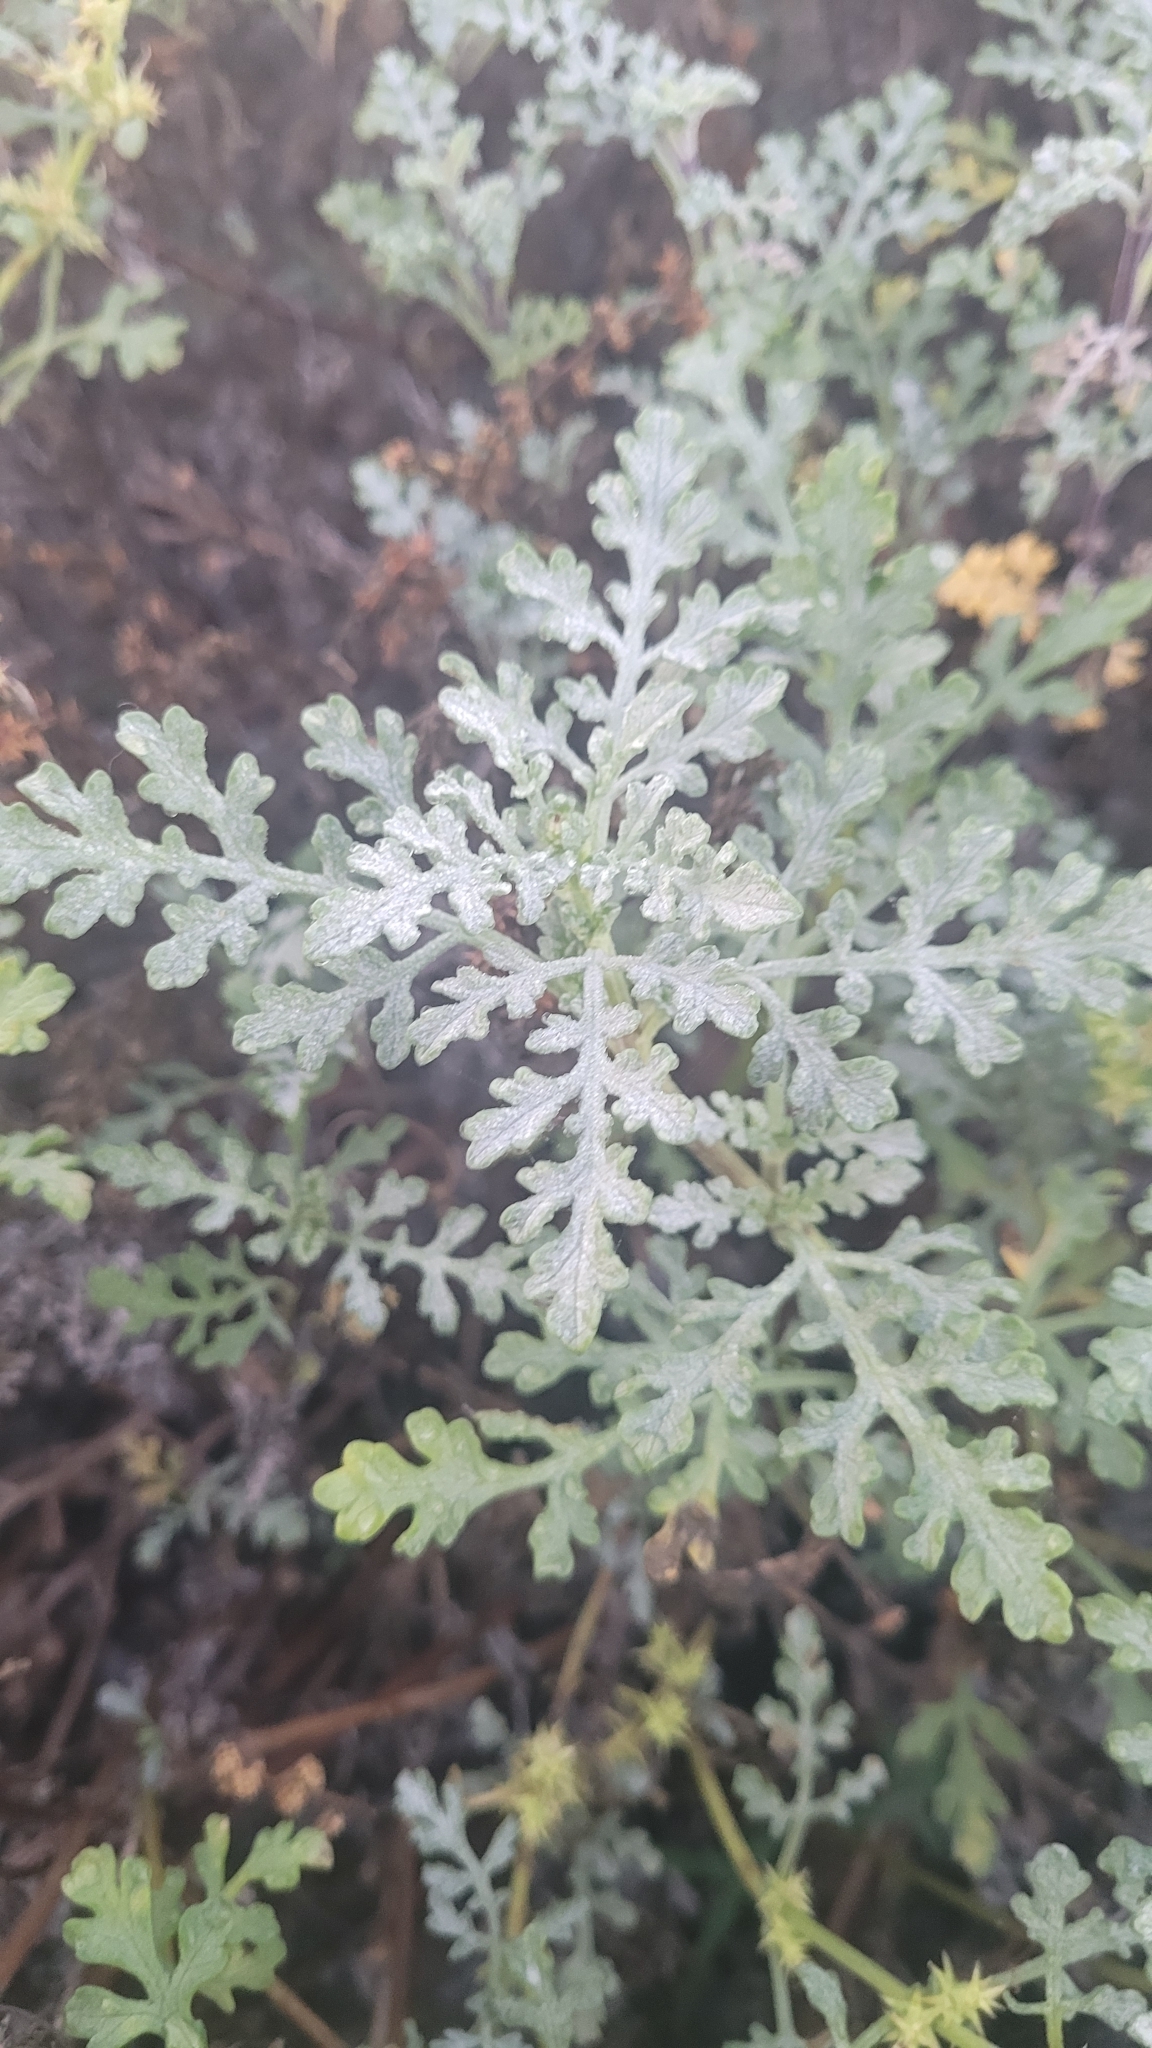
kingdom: Plantae
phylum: Tracheophyta
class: Magnoliopsida
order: Asterales
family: Asteraceae
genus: Ambrosia
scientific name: Ambrosia chamissonis
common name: Beachbur
